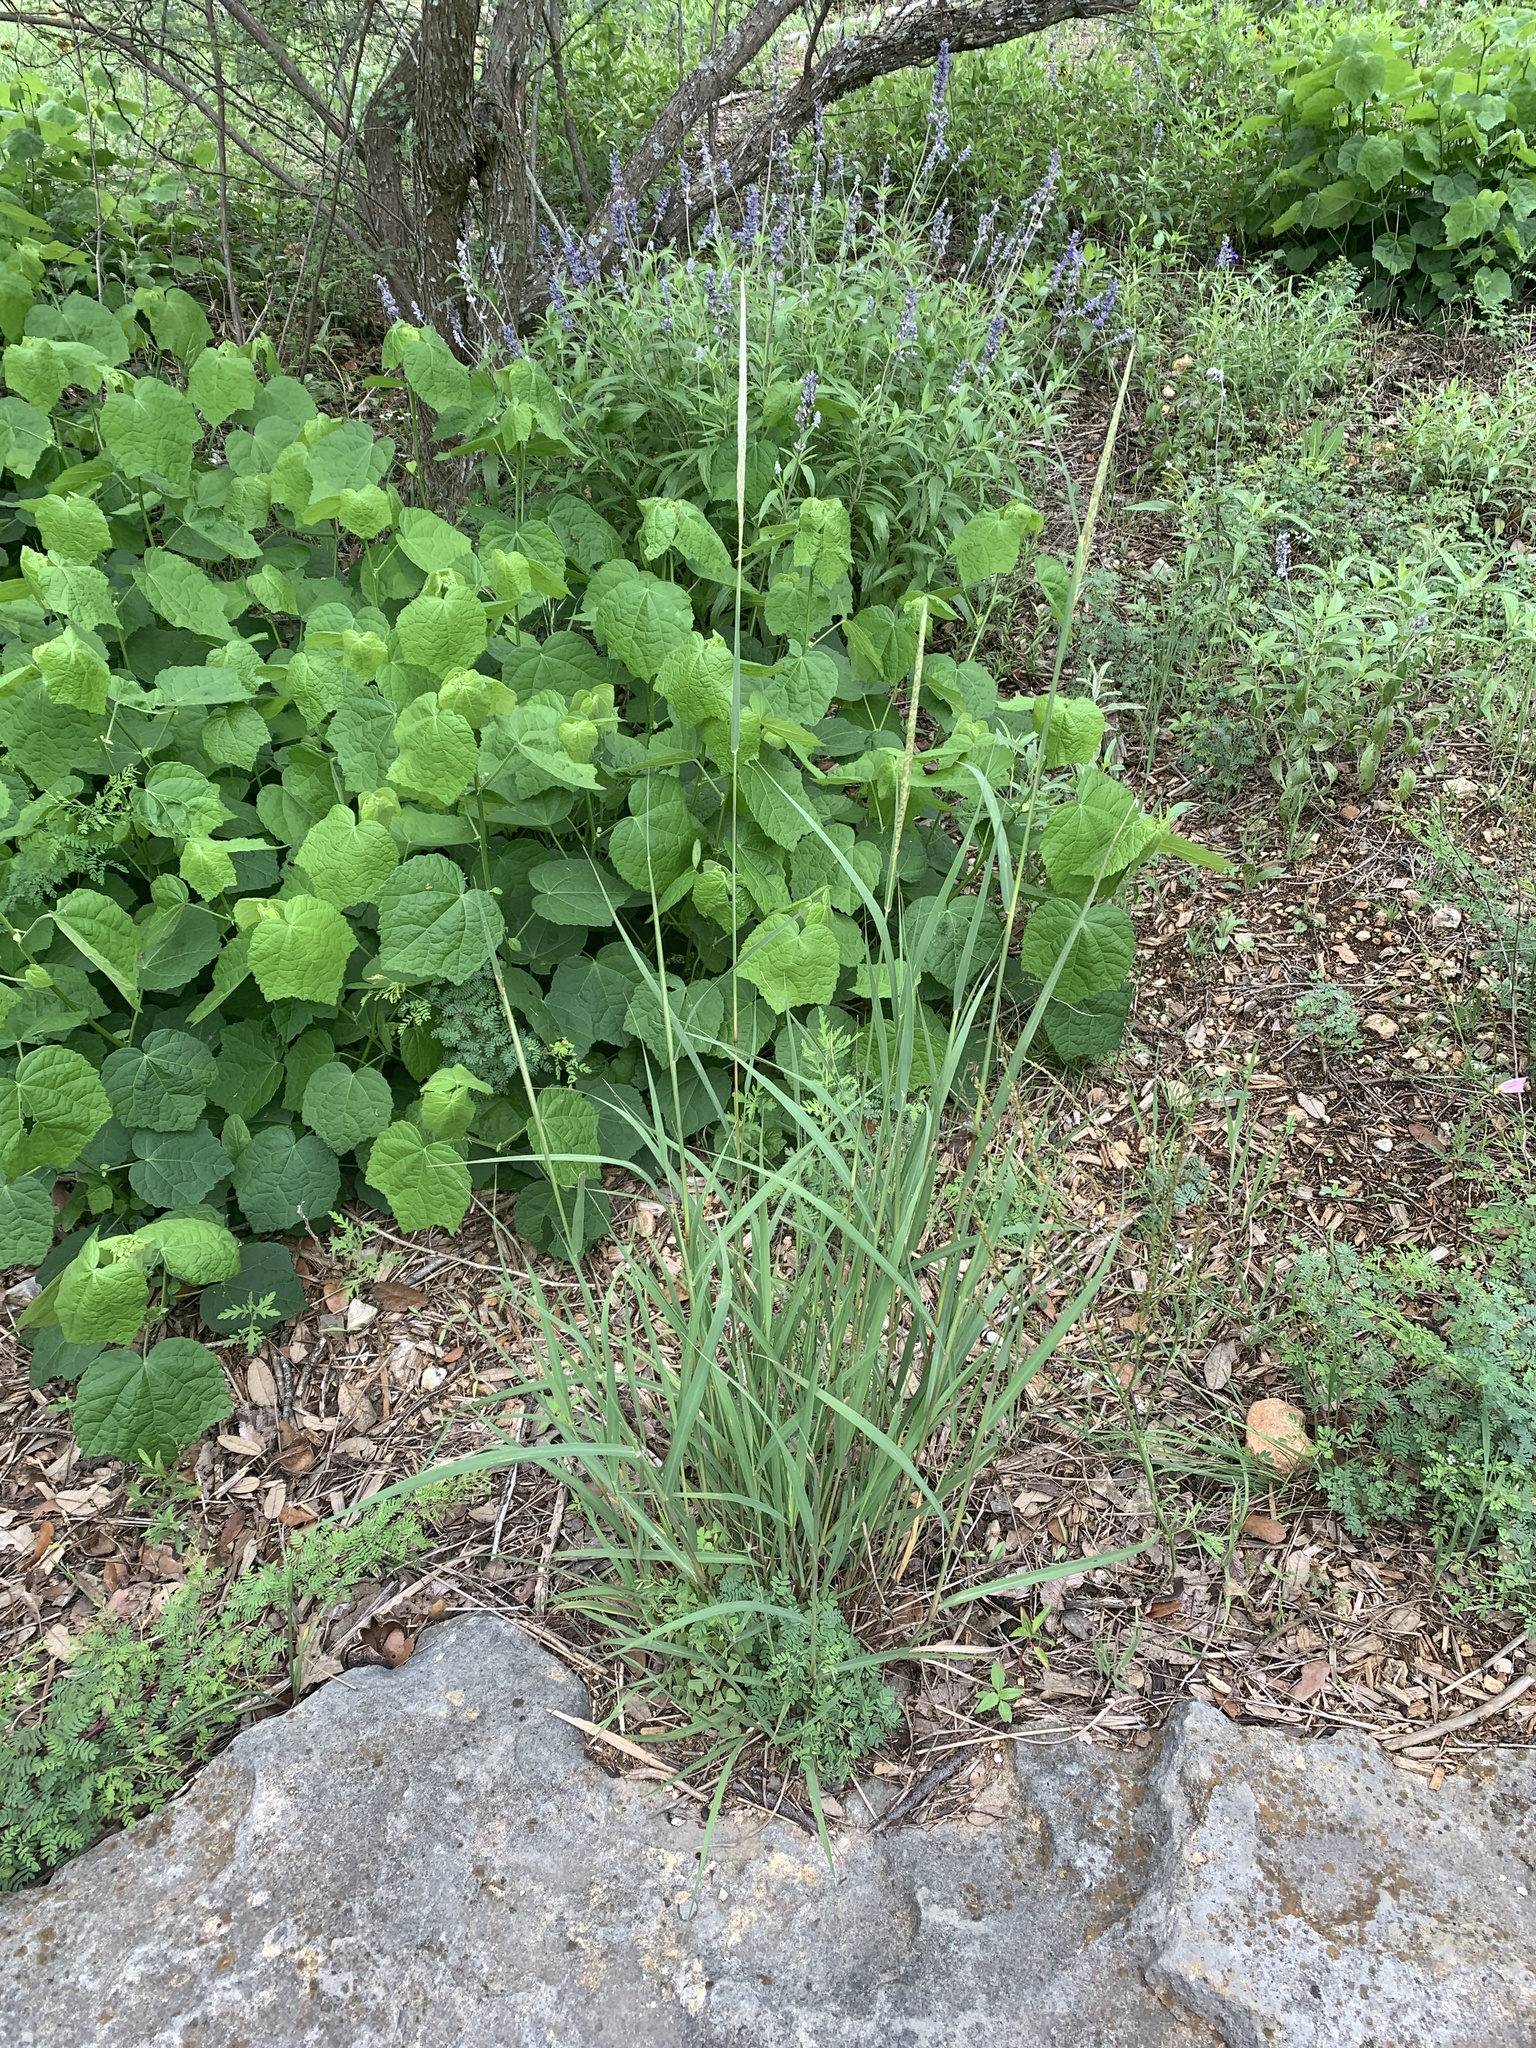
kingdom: Plantae
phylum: Tracheophyta
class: Liliopsida
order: Poales
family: Poaceae
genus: Bothriochloa
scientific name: Bothriochloa longipaniculata
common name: Longspike silver bluestem
